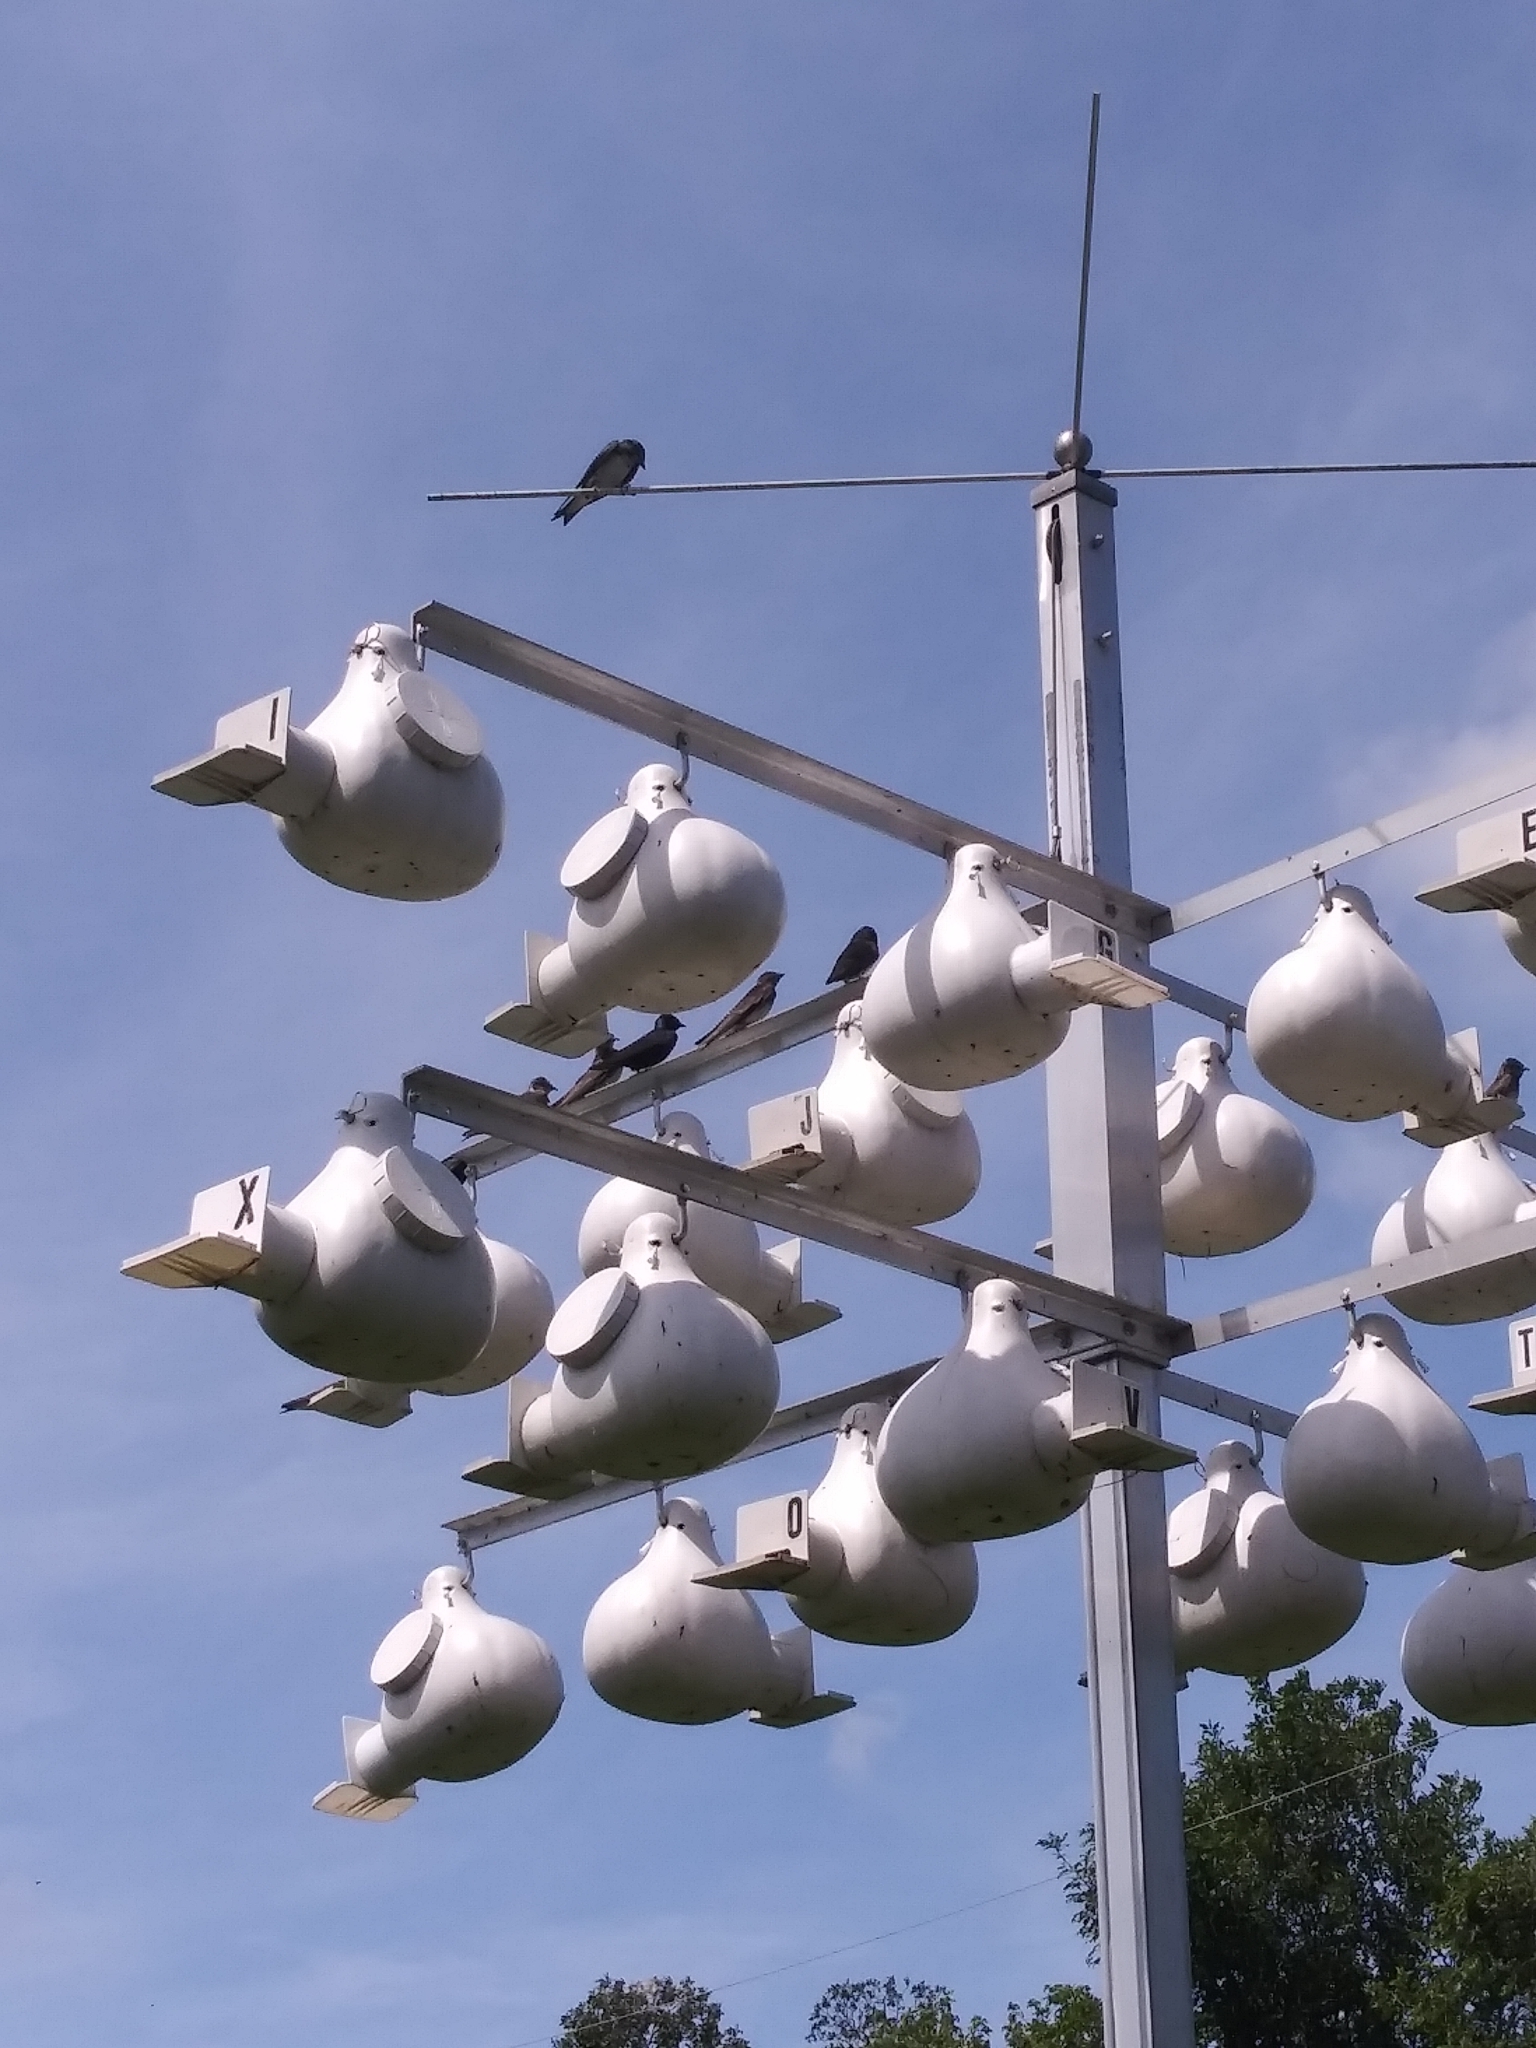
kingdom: Animalia
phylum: Chordata
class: Aves
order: Passeriformes
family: Hirundinidae
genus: Progne
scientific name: Progne subis
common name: Purple martin
